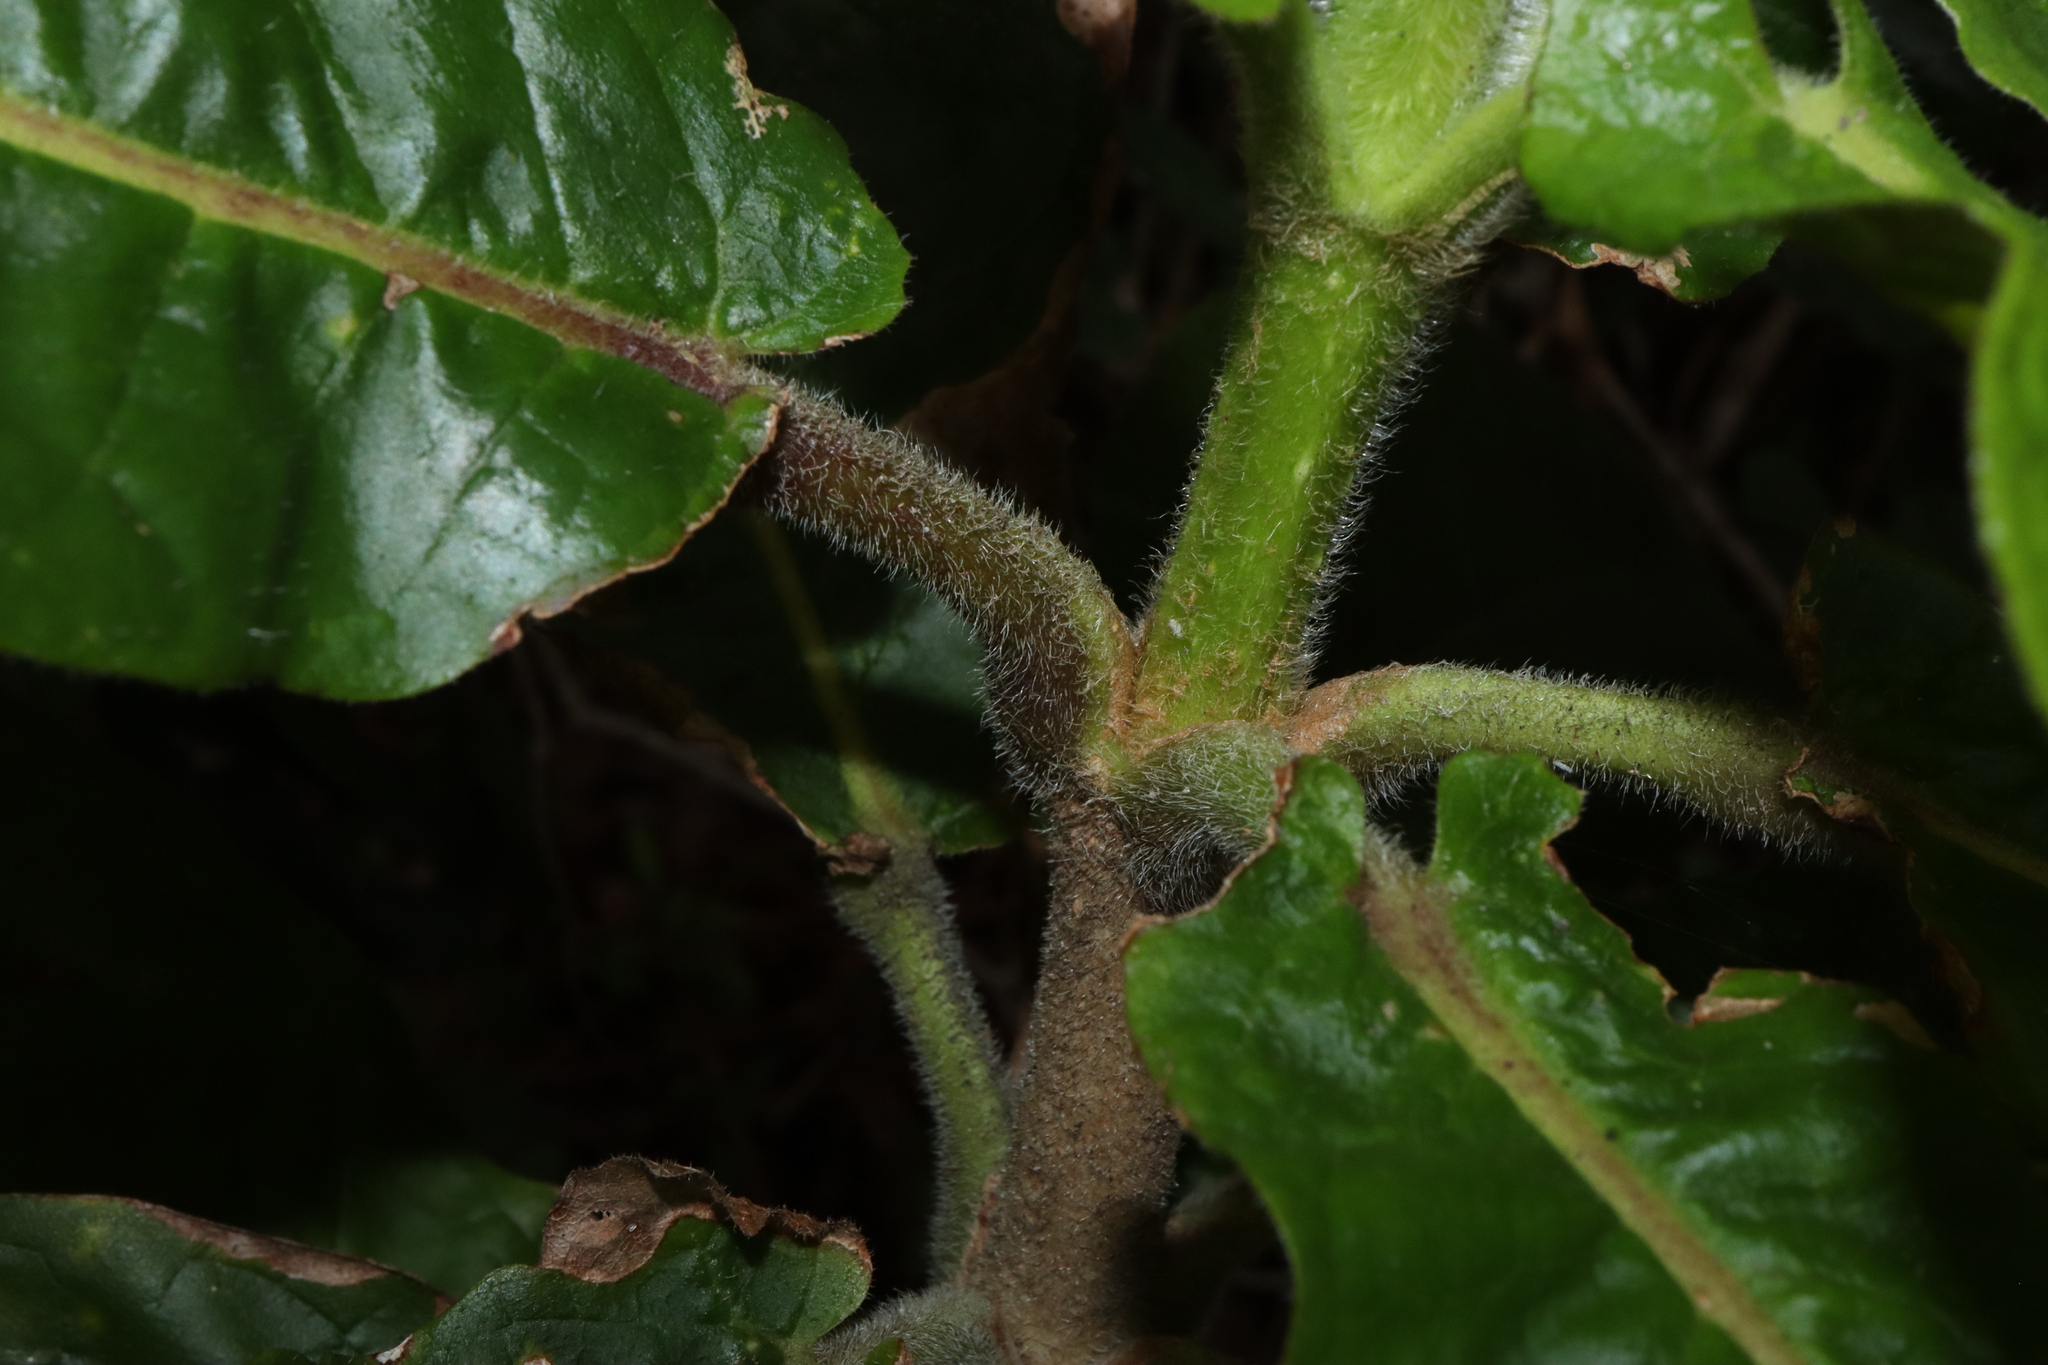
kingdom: Plantae
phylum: Tracheophyta
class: Magnoliopsida
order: Lamiales
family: Bignoniaceae
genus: Deplanchea
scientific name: Deplanchea tetraphylla
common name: Deplanchea
